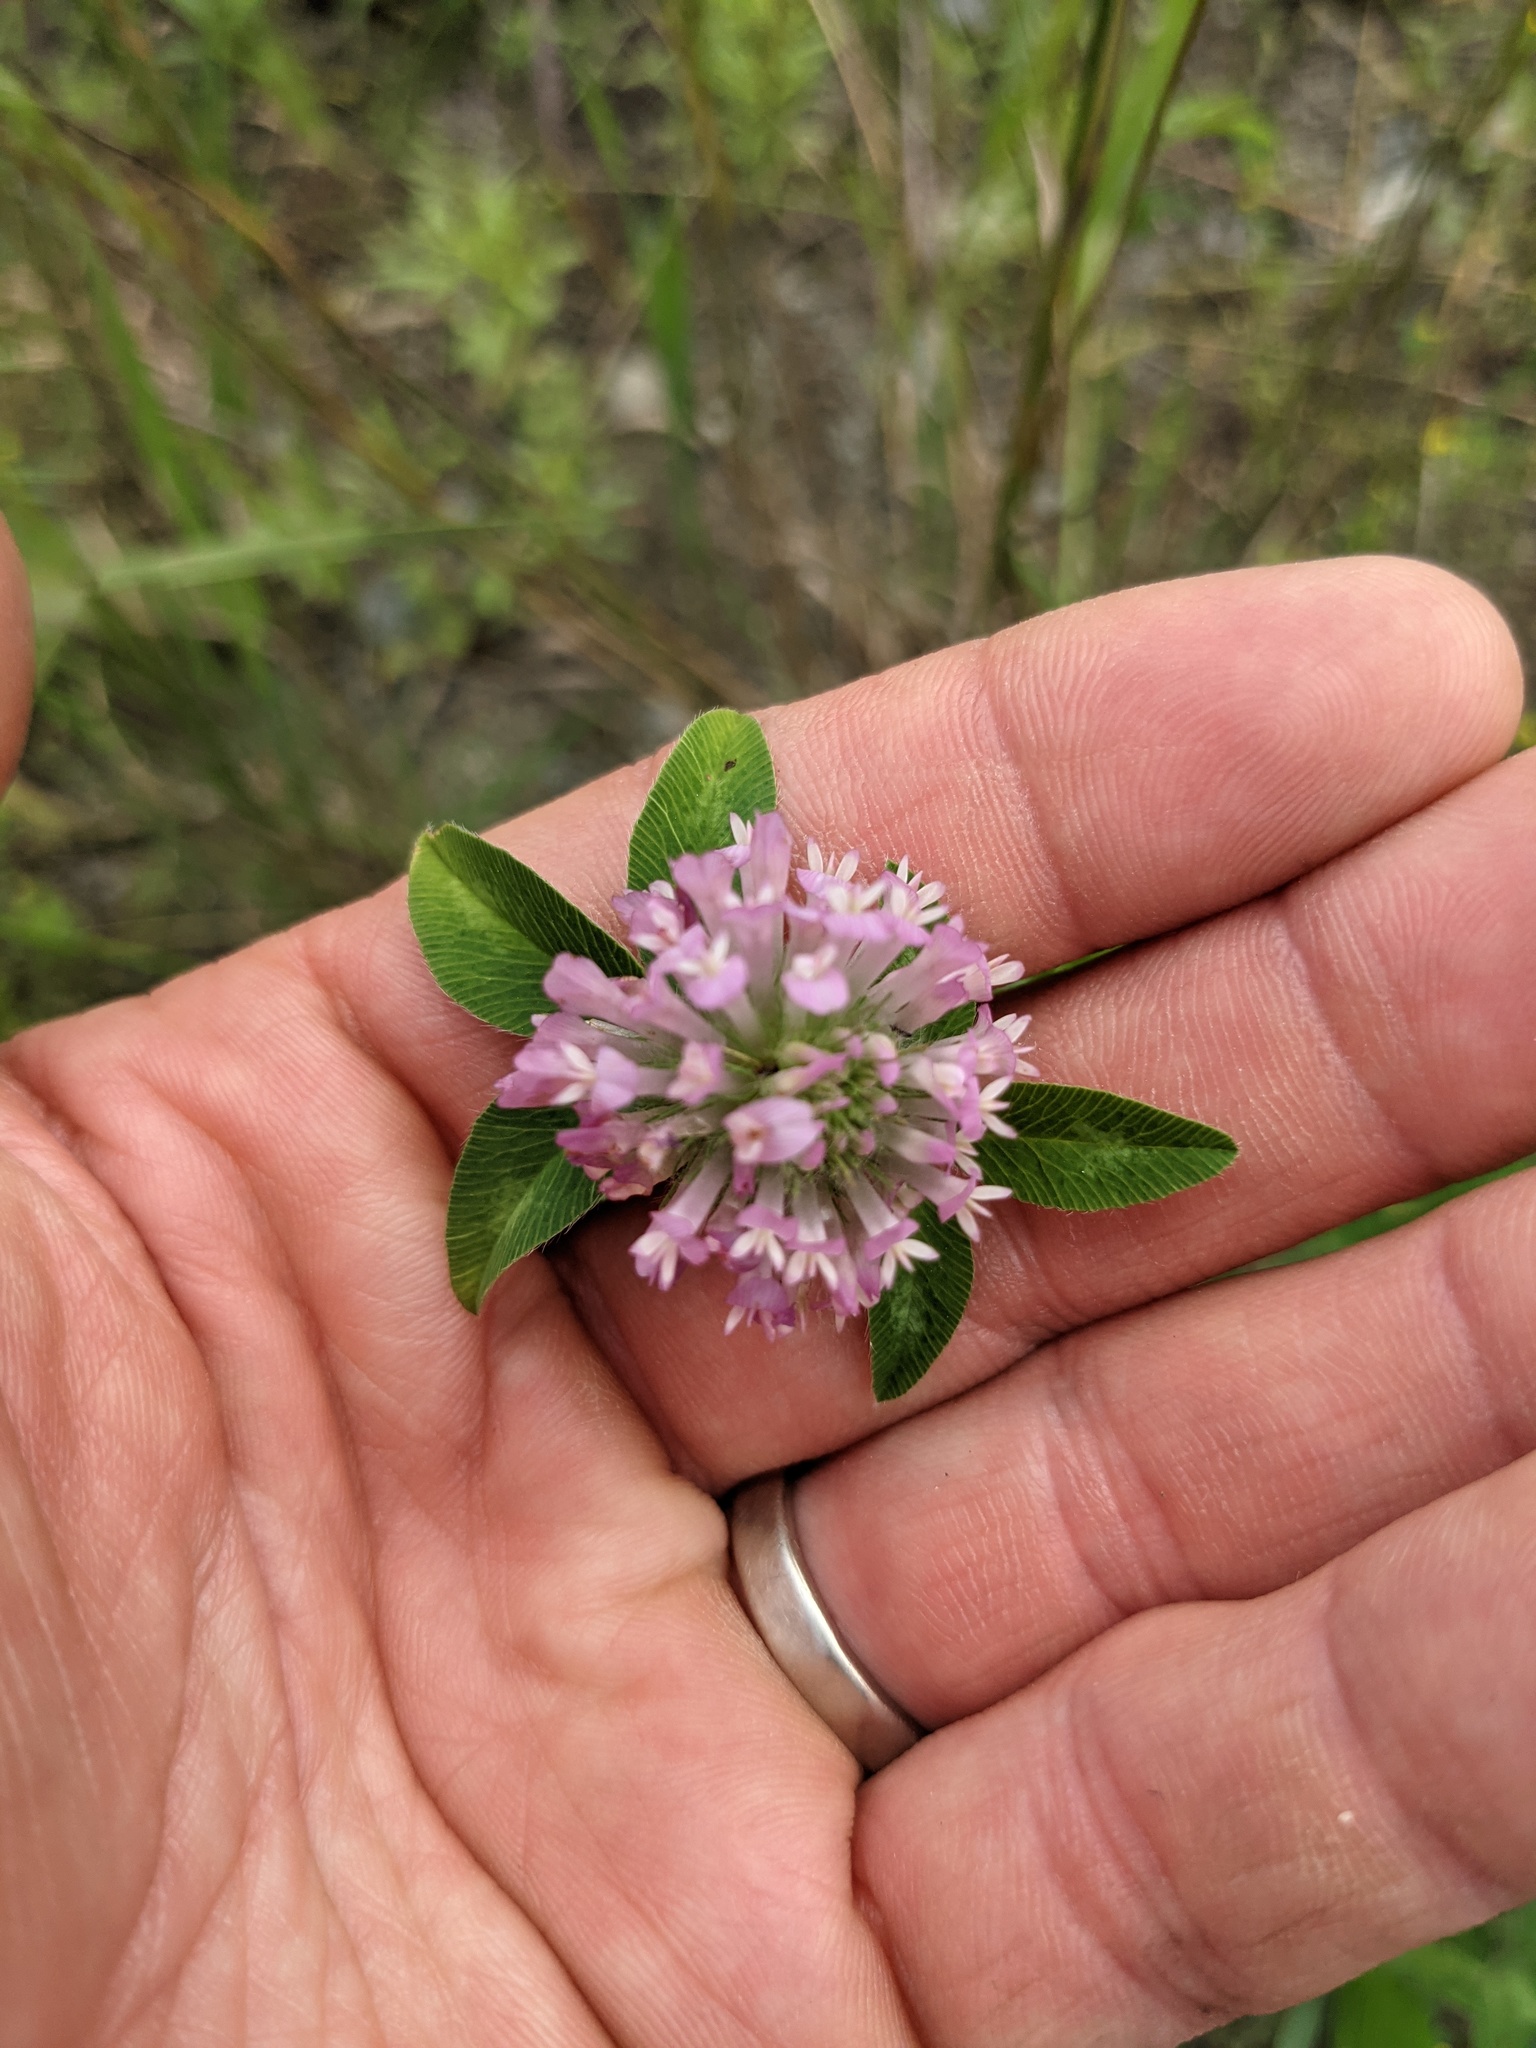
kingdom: Plantae
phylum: Tracheophyta
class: Magnoliopsida
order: Fabales
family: Fabaceae
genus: Trifolium
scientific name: Trifolium pratense
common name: Red clover
